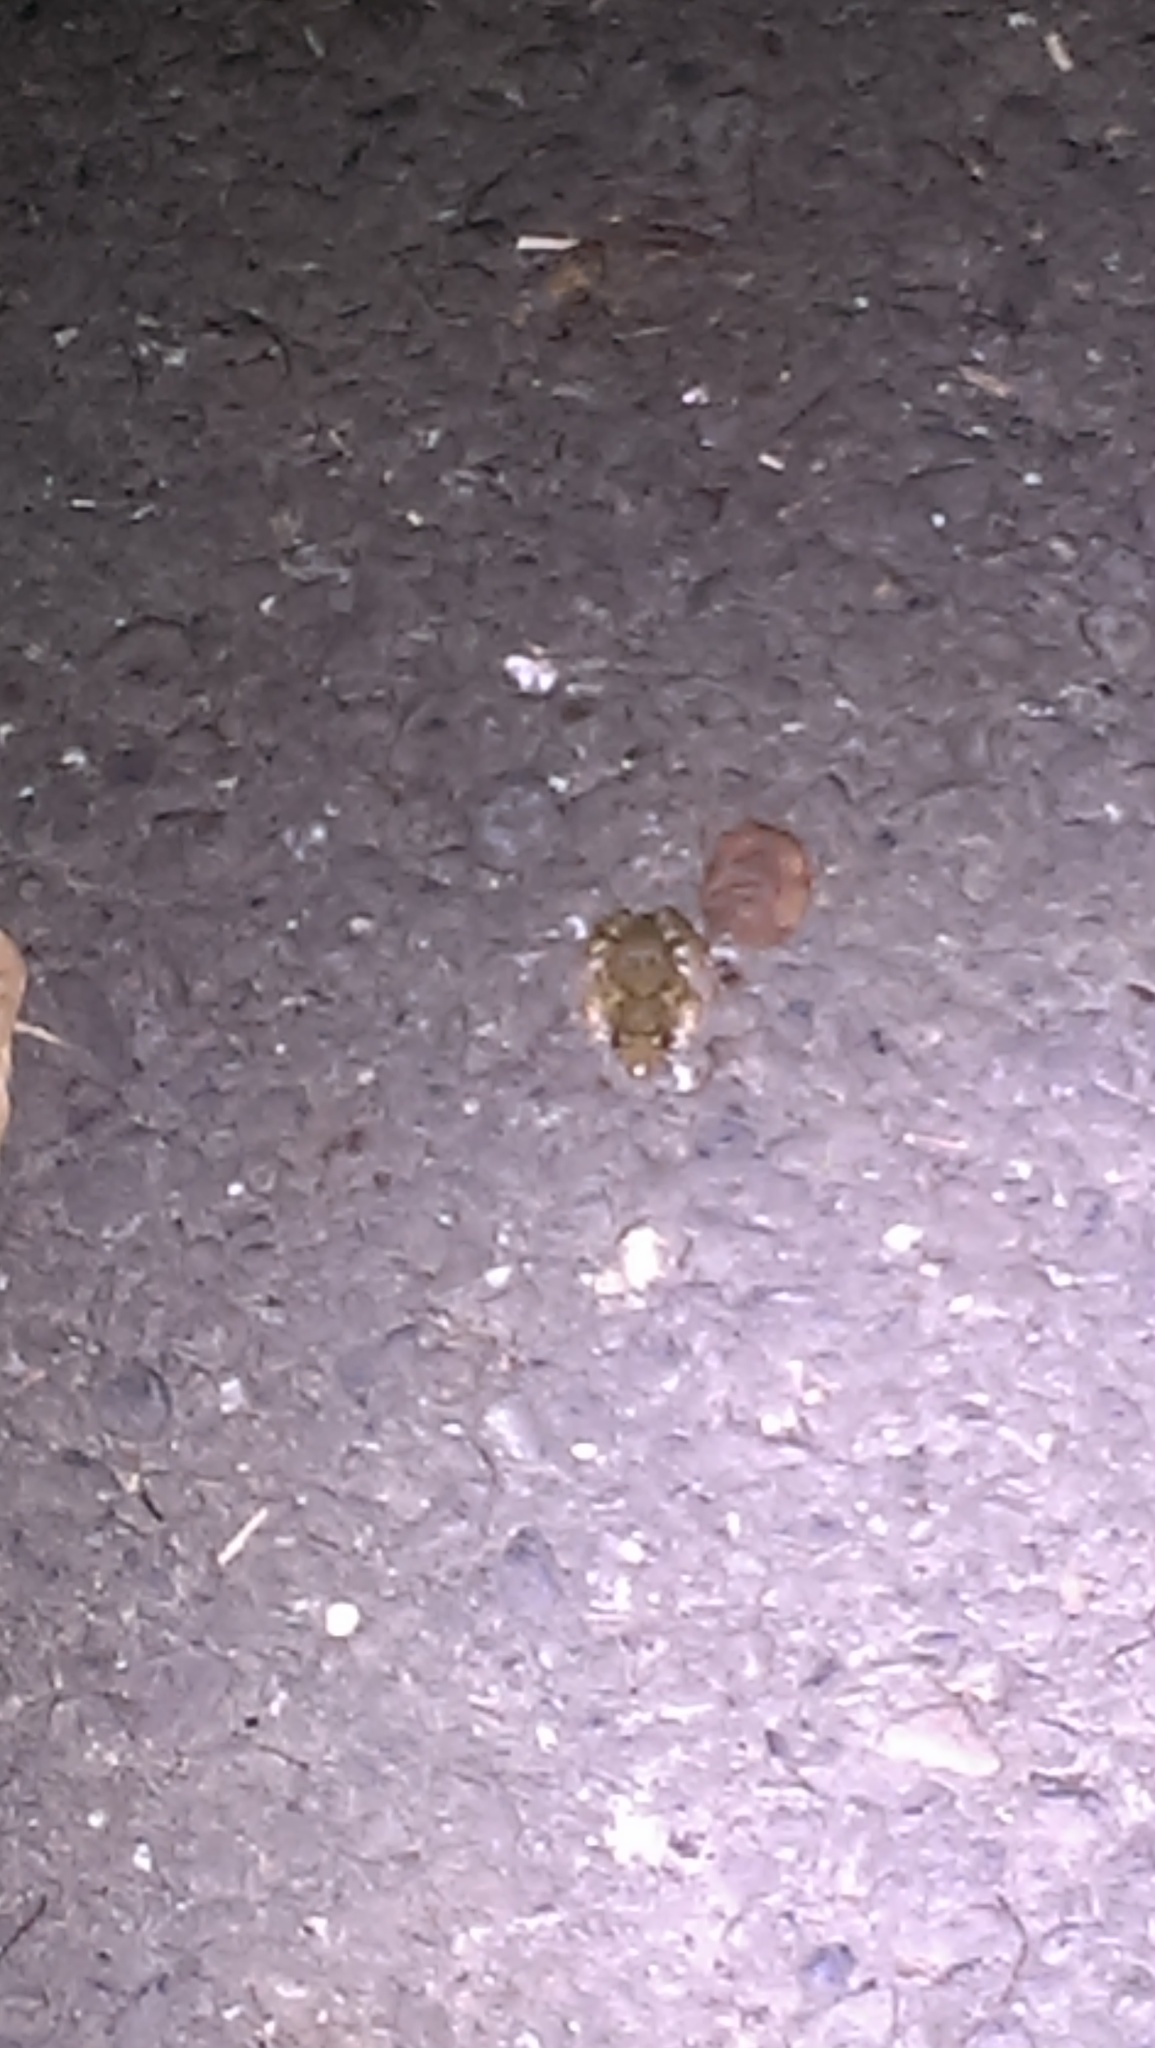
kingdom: Animalia
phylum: Chordata
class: Amphibia
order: Anura
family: Dicroglossidae
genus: Fejervarya
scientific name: Fejervarya limnocharis
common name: Asian grass frog/common pond frog/field frog/grass frog/indian rice frog
